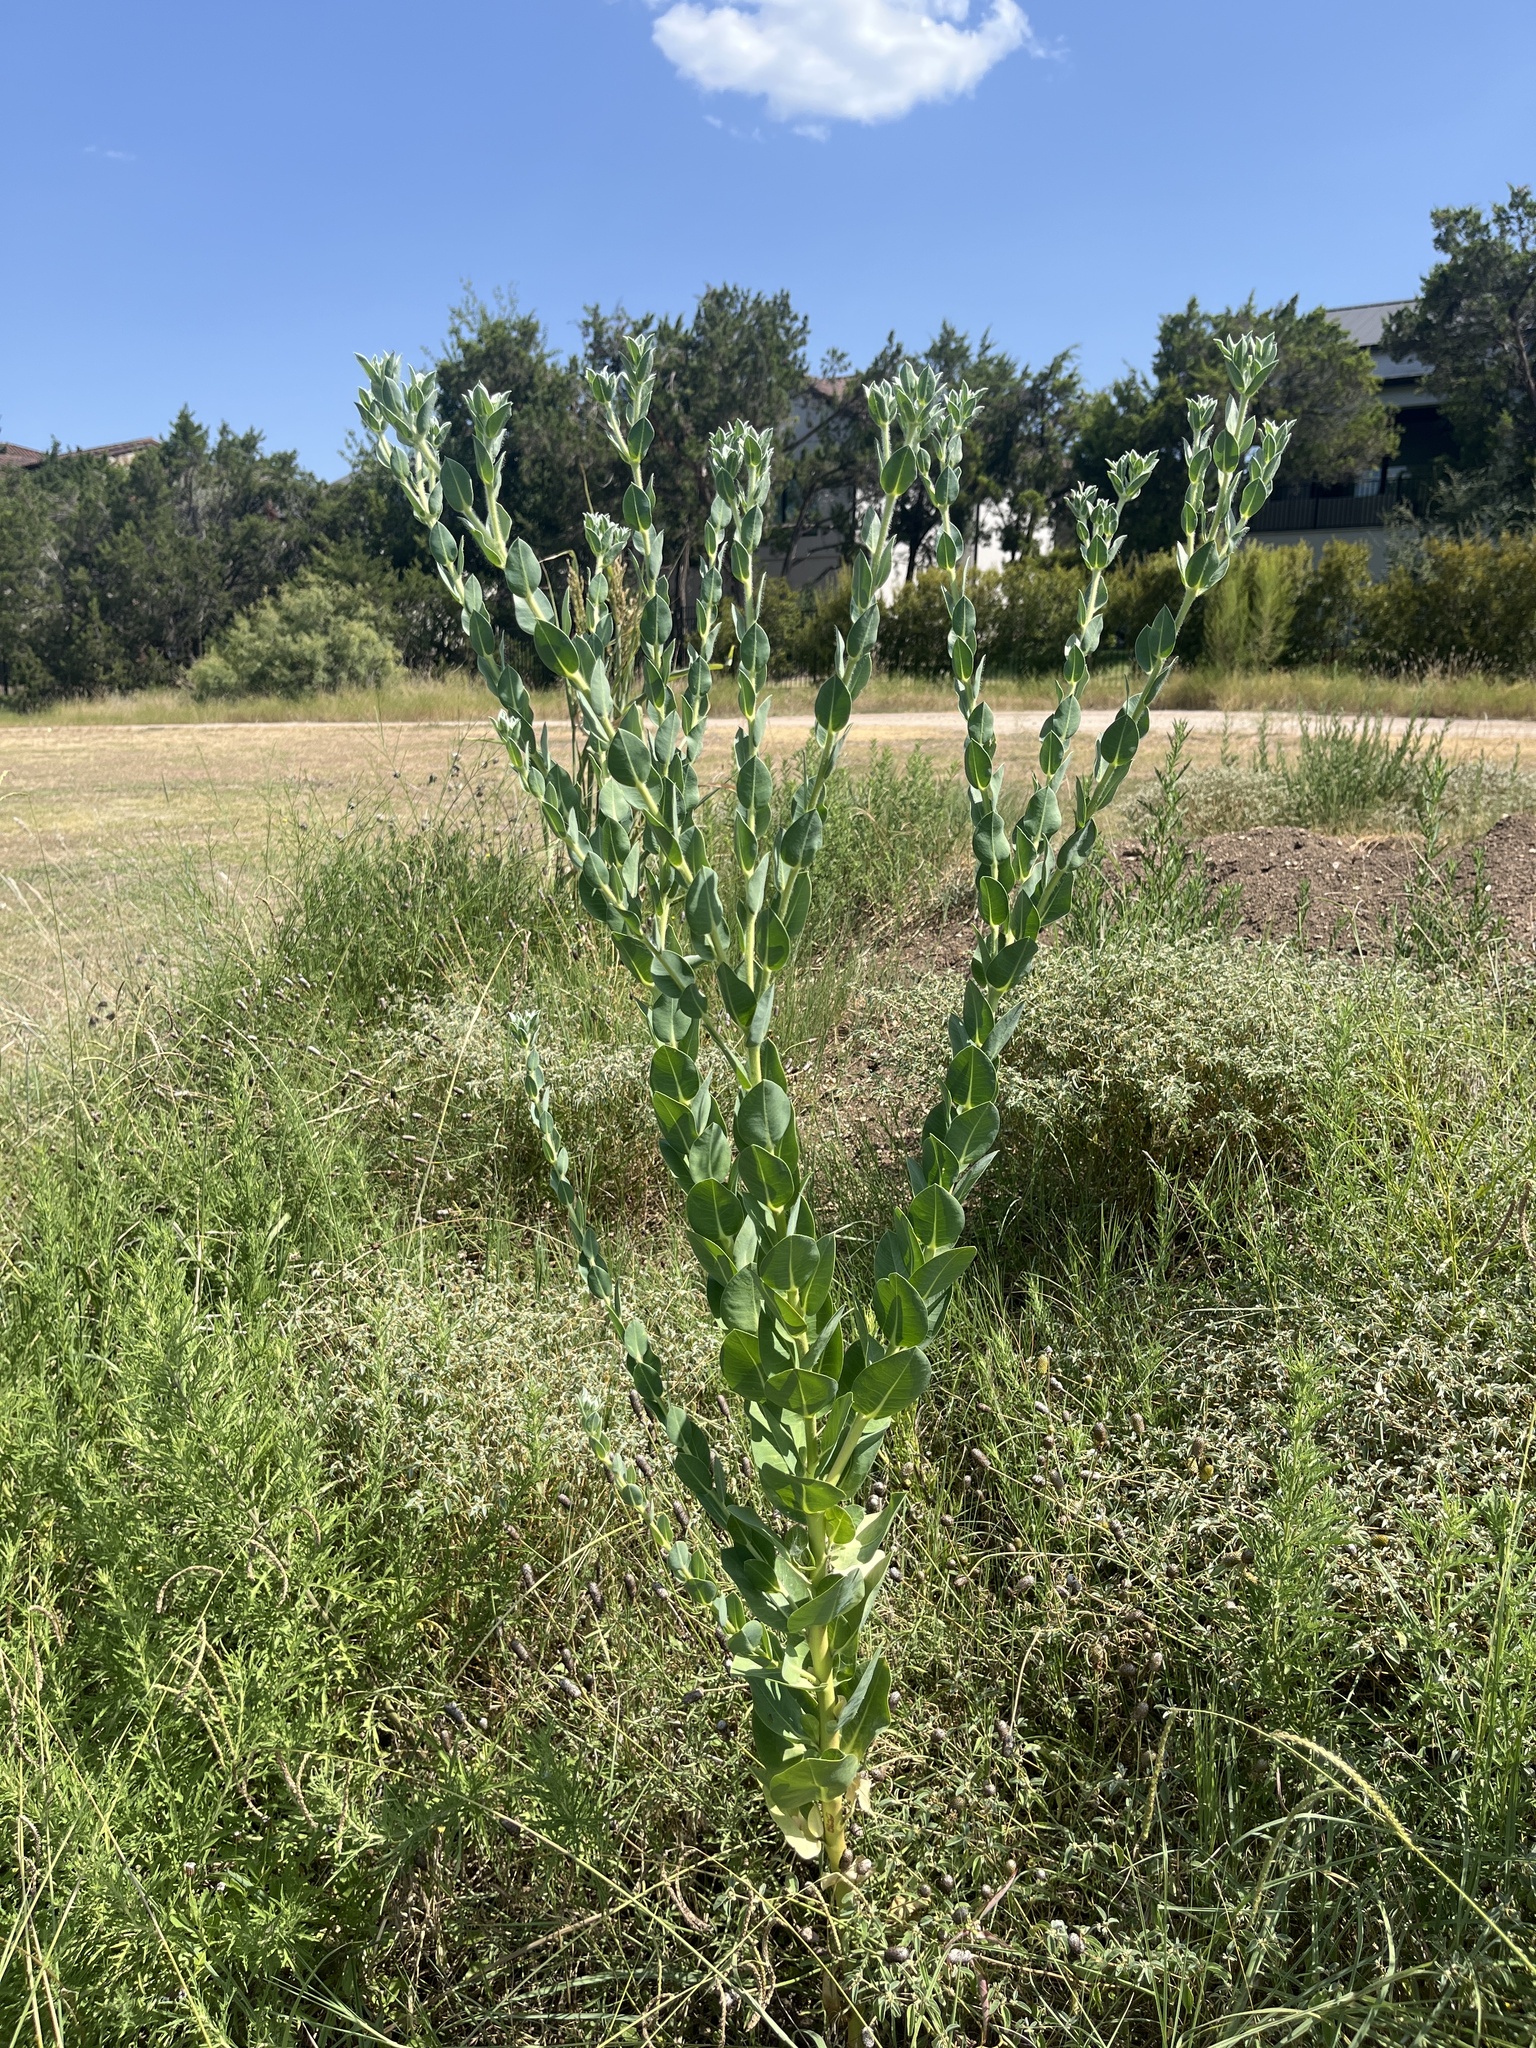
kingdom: Plantae
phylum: Tracheophyta
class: Magnoliopsida
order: Malpighiales
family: Euphorbiaceae
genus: Euphorbia
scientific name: Euphorbia marginata
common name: Ghostweed
